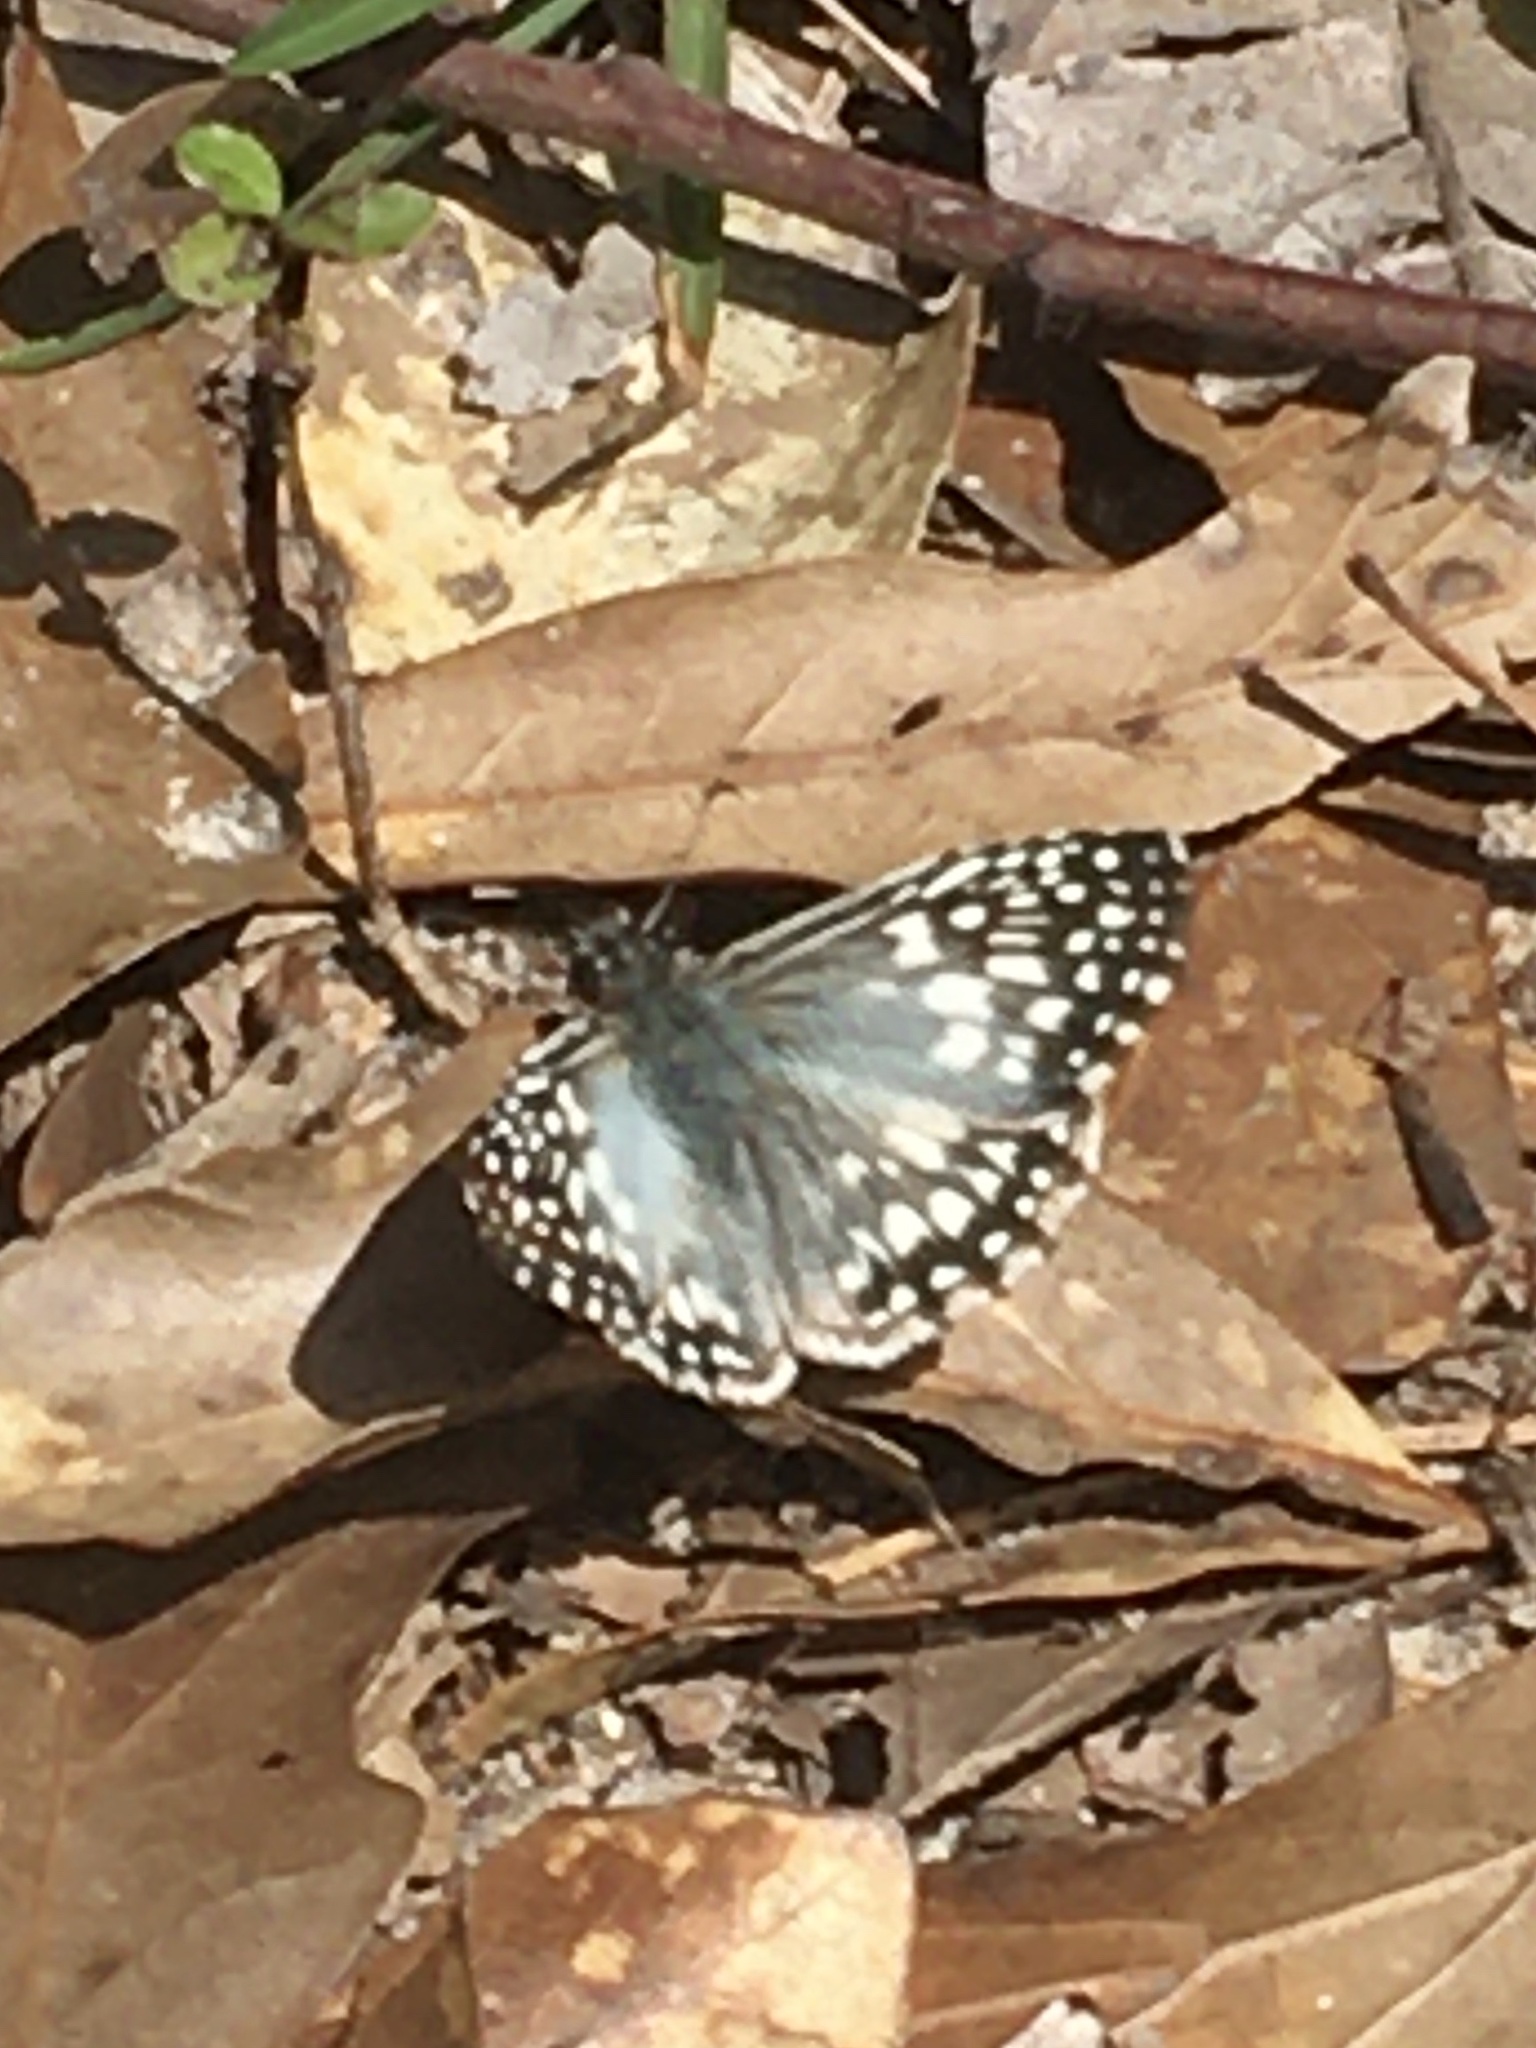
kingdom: Animalia
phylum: Arthropoda
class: Insecta
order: Lepidoptera
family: Hesperiidae
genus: Pyrgus
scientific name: Pyrgus oileus
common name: Tropical checkered-skipper
